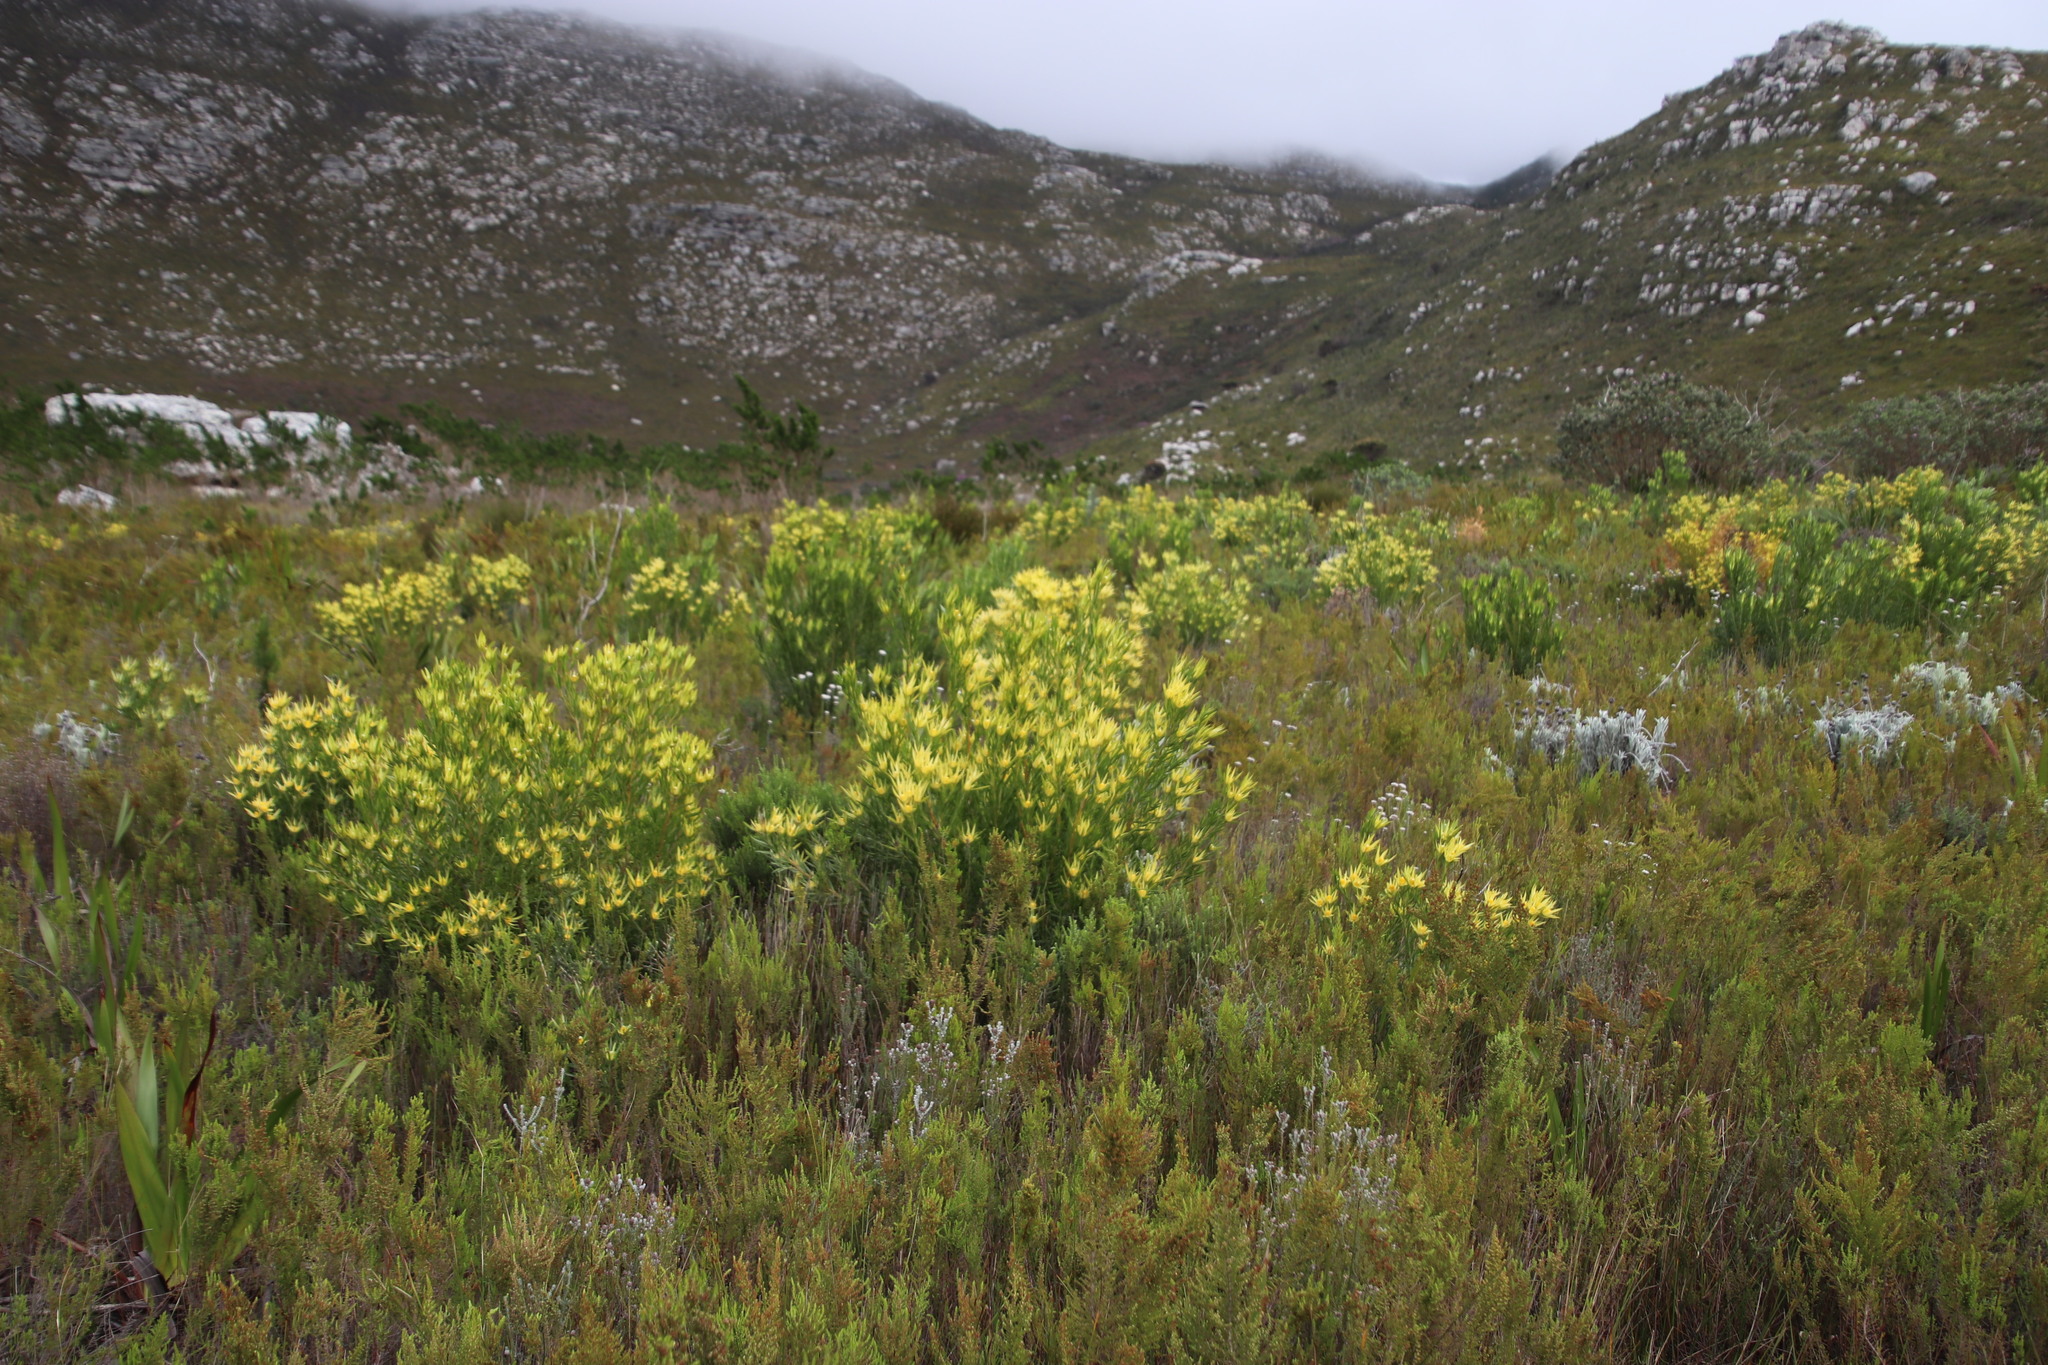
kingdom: Plantae
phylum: Tracheophyta
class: Magnoliopsida
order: Proteales
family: Proteaceae
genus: Leucadendron
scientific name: Leucadendron xanthoconus
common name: Sickle-leaf conebush
